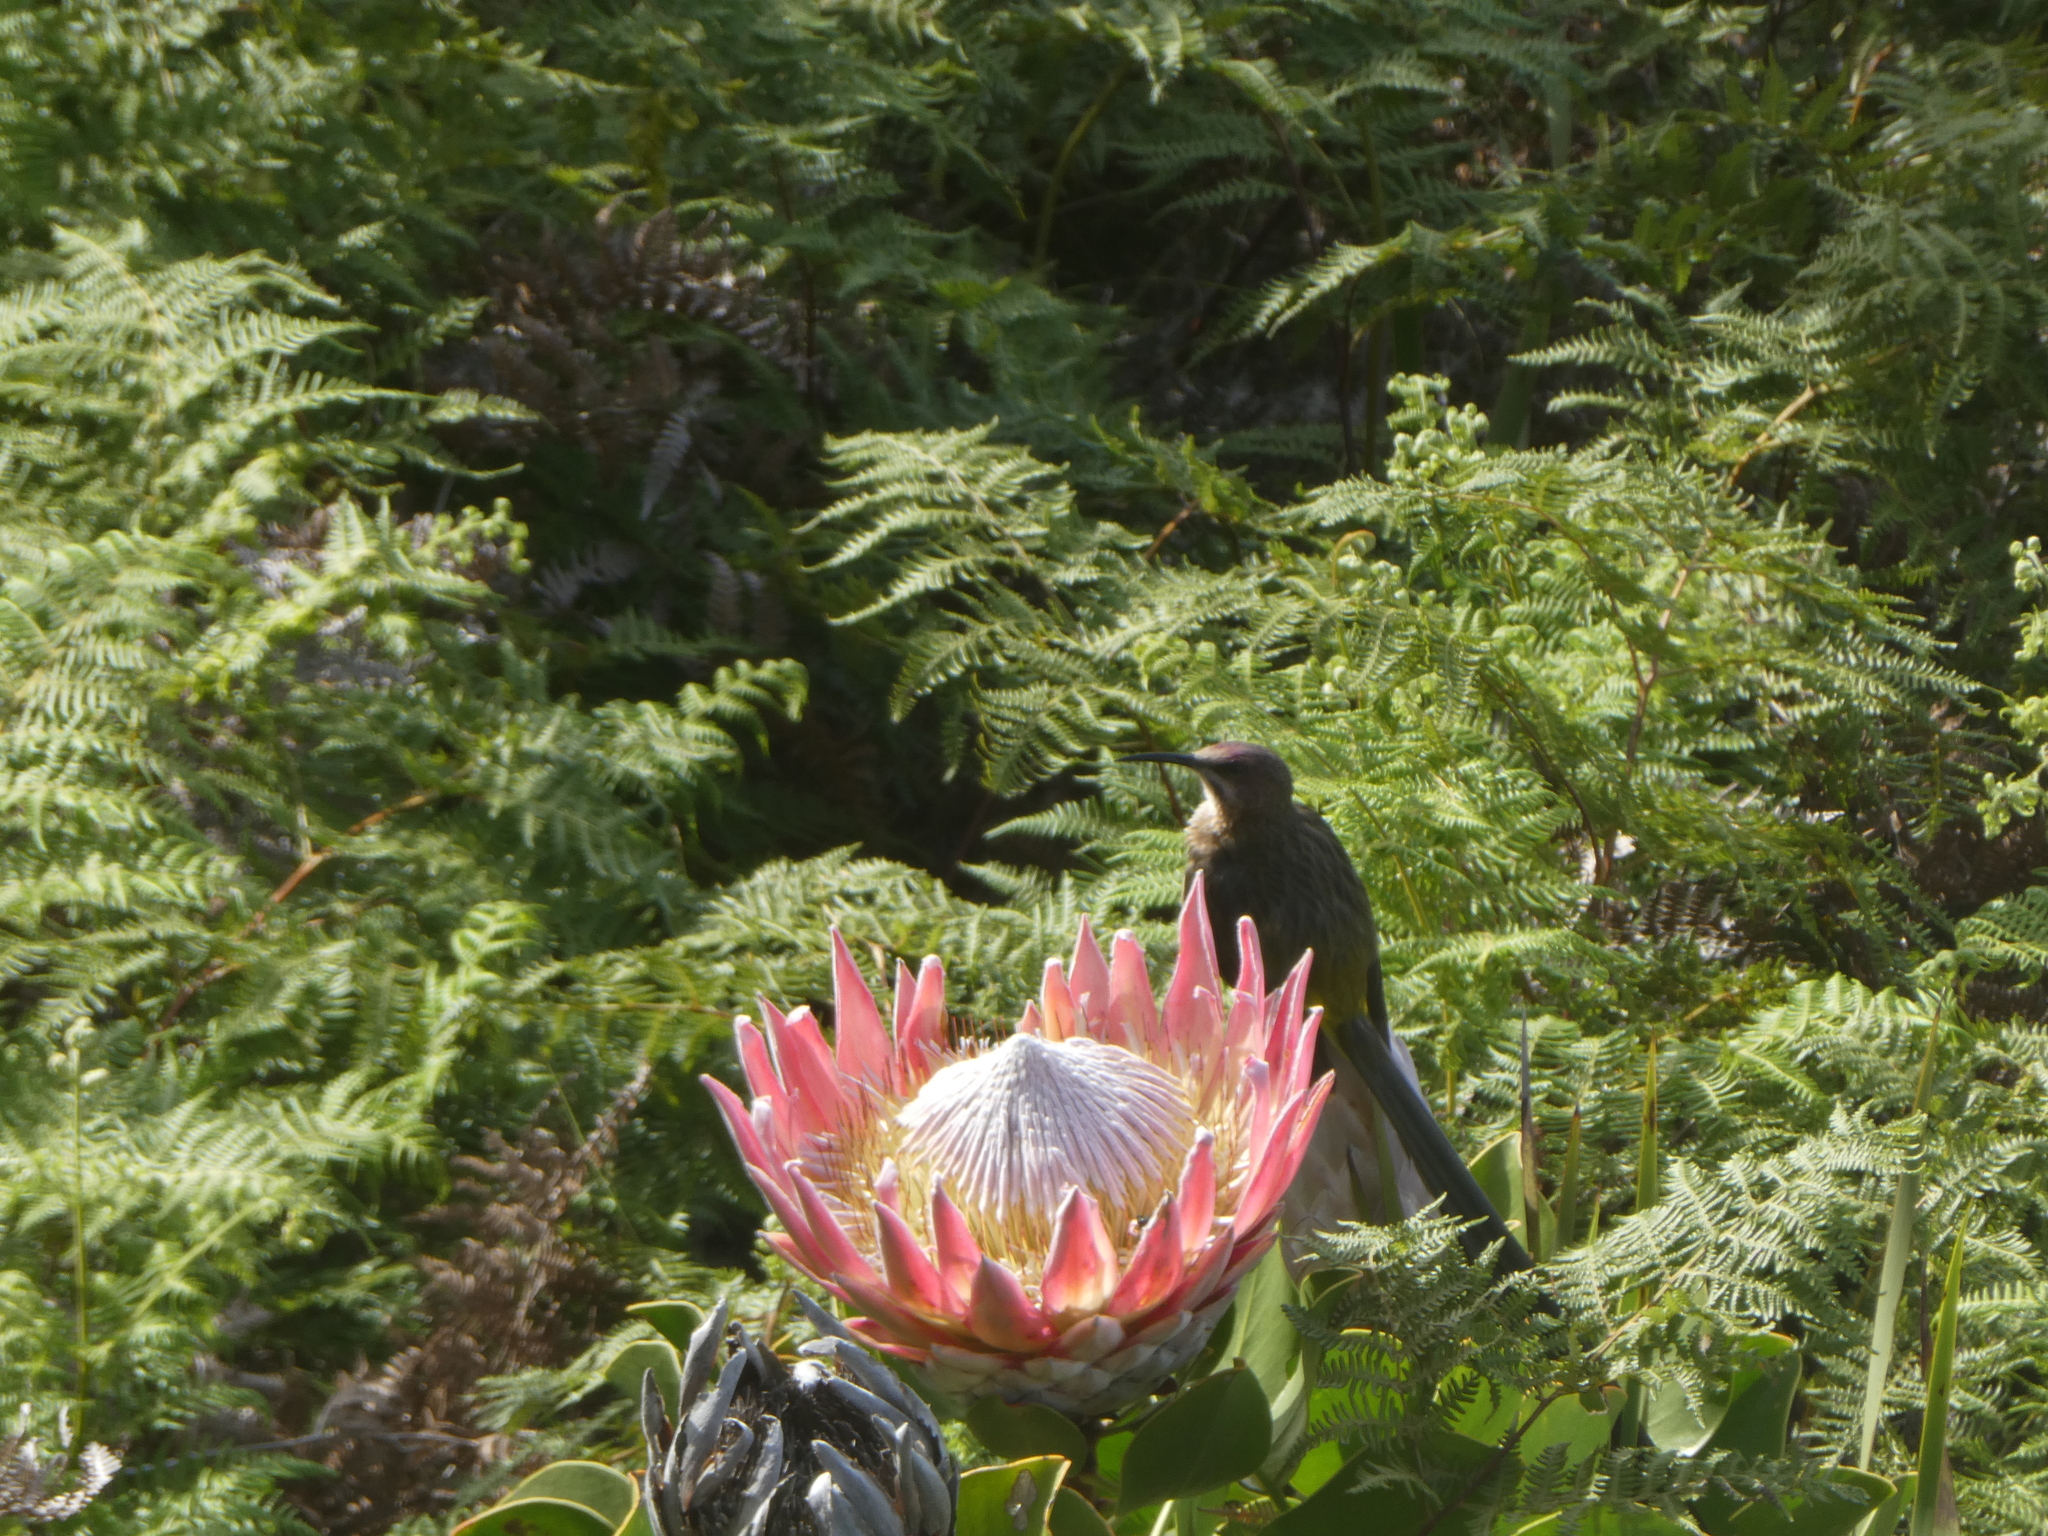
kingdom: Animalia
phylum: Chordata
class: Aves
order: Passeriformes
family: Promeropidae
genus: Promerops
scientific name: Promerops cafer
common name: Cape sugarbird
